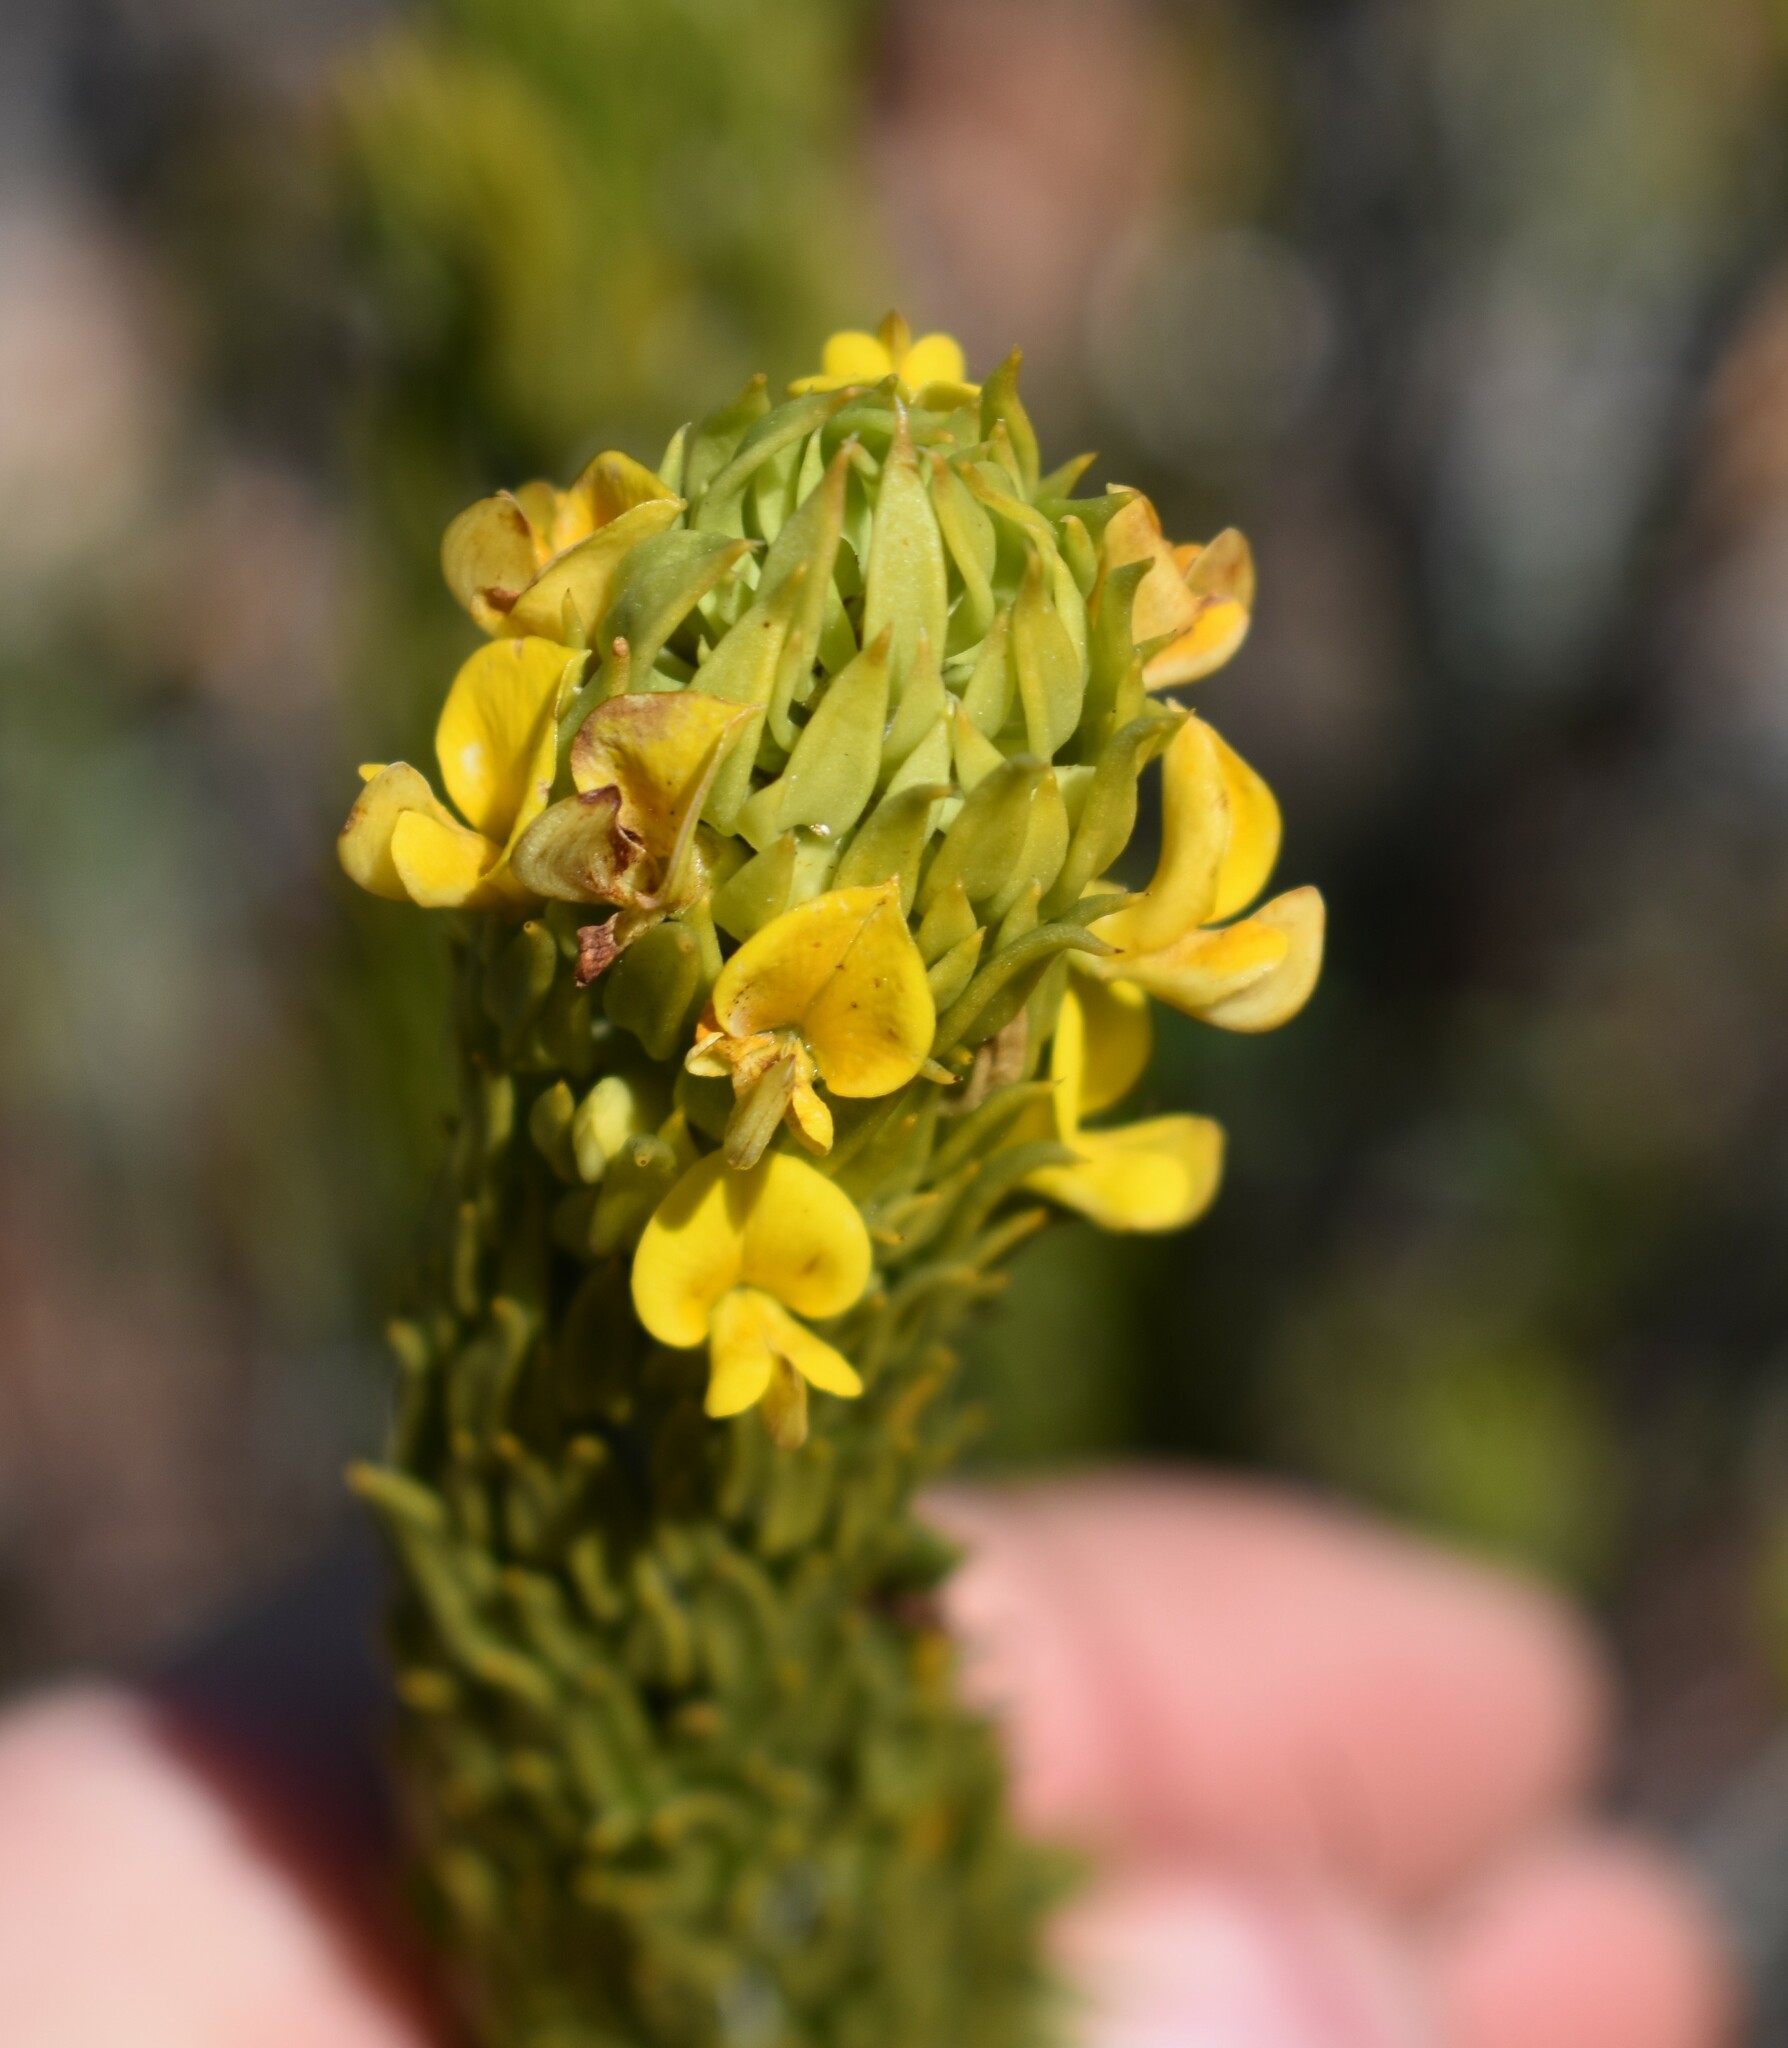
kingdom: Plantae
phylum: Tracheophyta
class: Magnoliopsida
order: Fabales
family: Fabaceae
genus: Aspalathus
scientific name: Aspalathus mundiana
